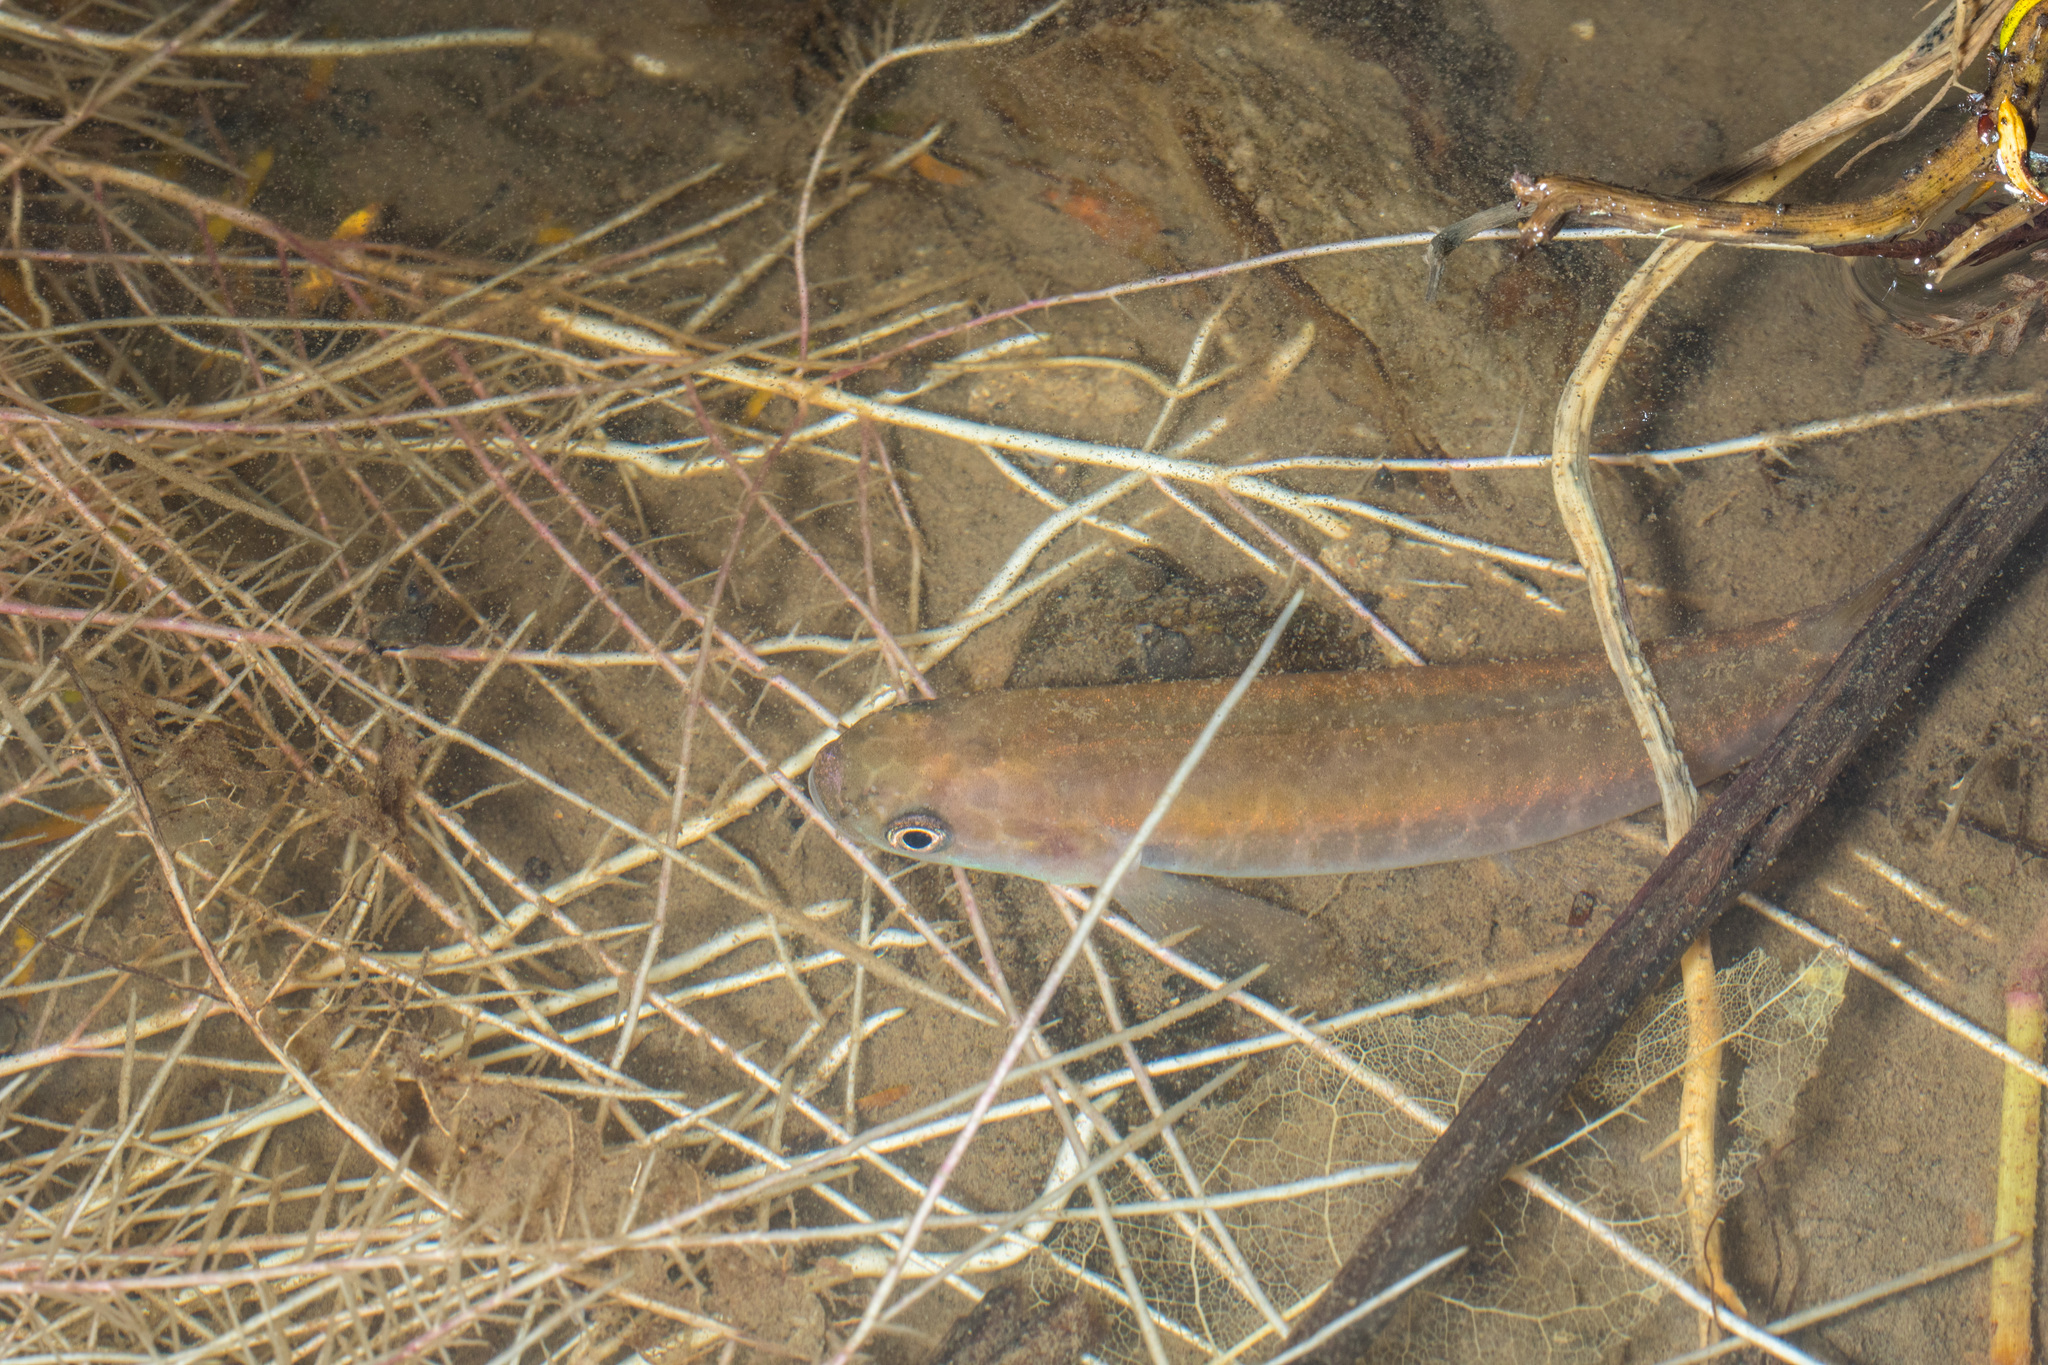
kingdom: Animalia
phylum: Chordata
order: Osmeriformes
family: Galaxiidae
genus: Galaxias
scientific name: Galaxias fasciatus
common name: Banded kokopu
